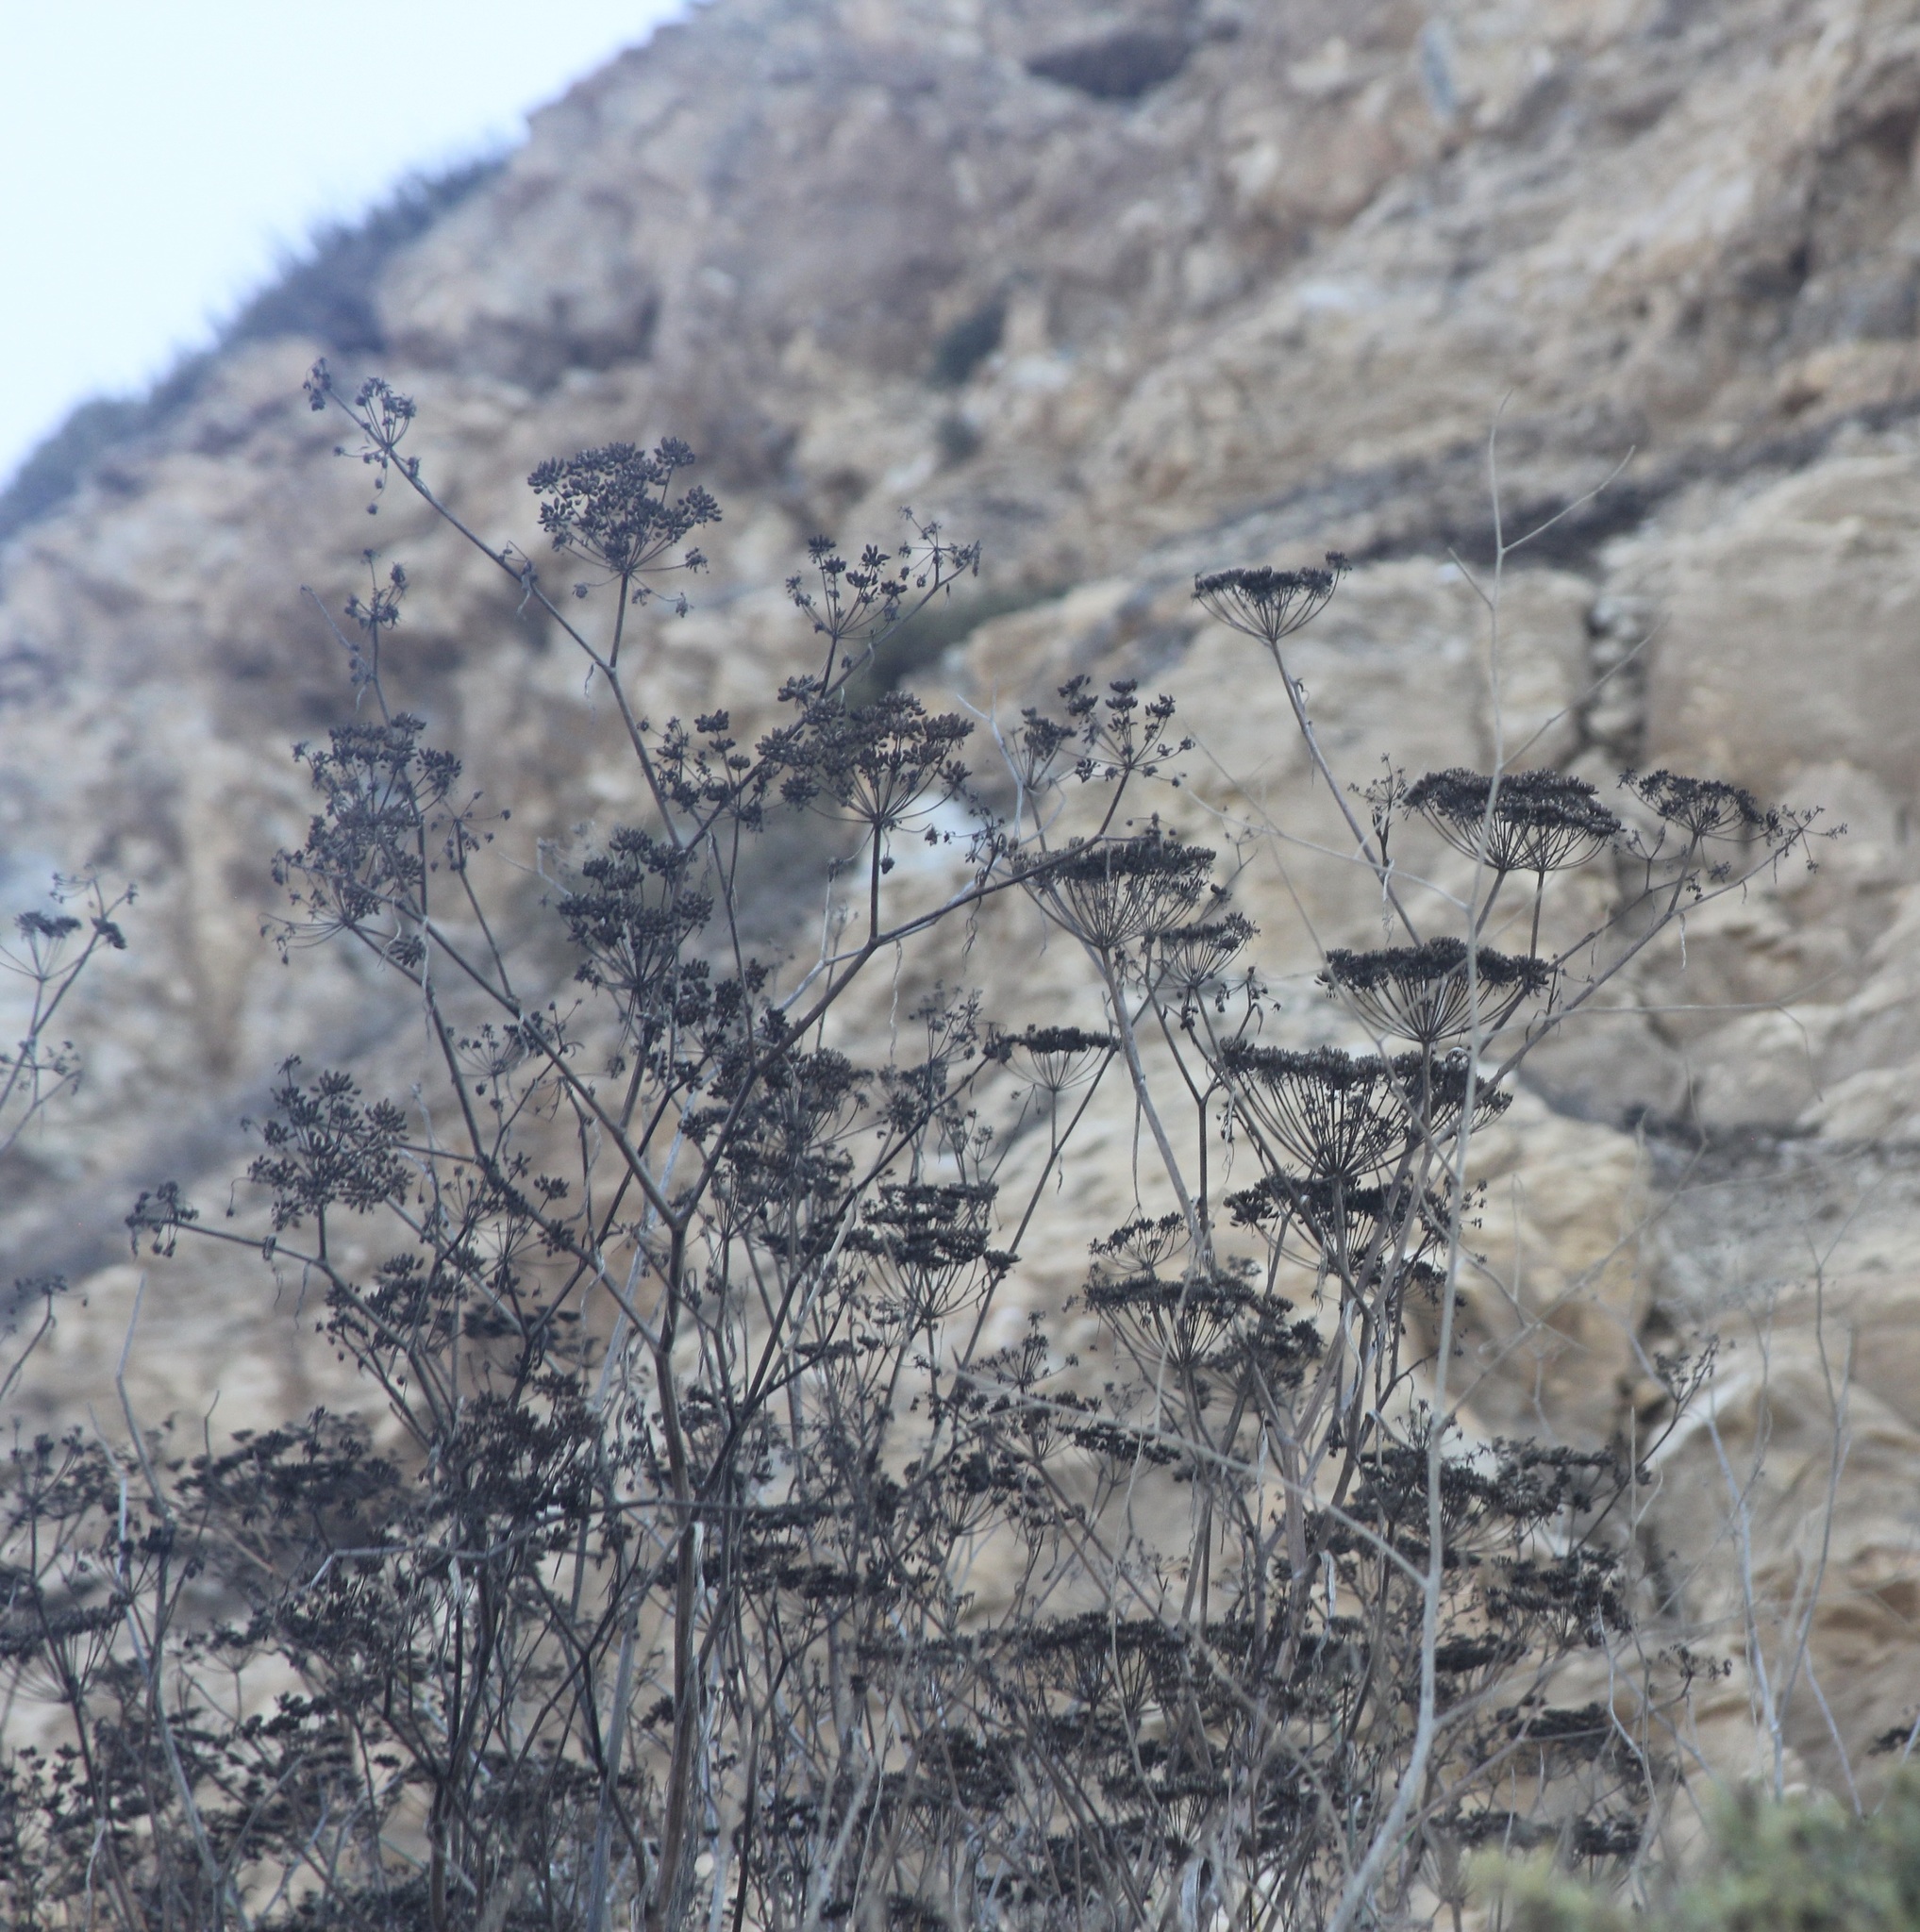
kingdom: Plantae
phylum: Tracheophyta
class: Magnoliopsida
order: Apiales
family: Apiaceae
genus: Foeniculum
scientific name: Foeniculum vulgare
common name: Fennel
